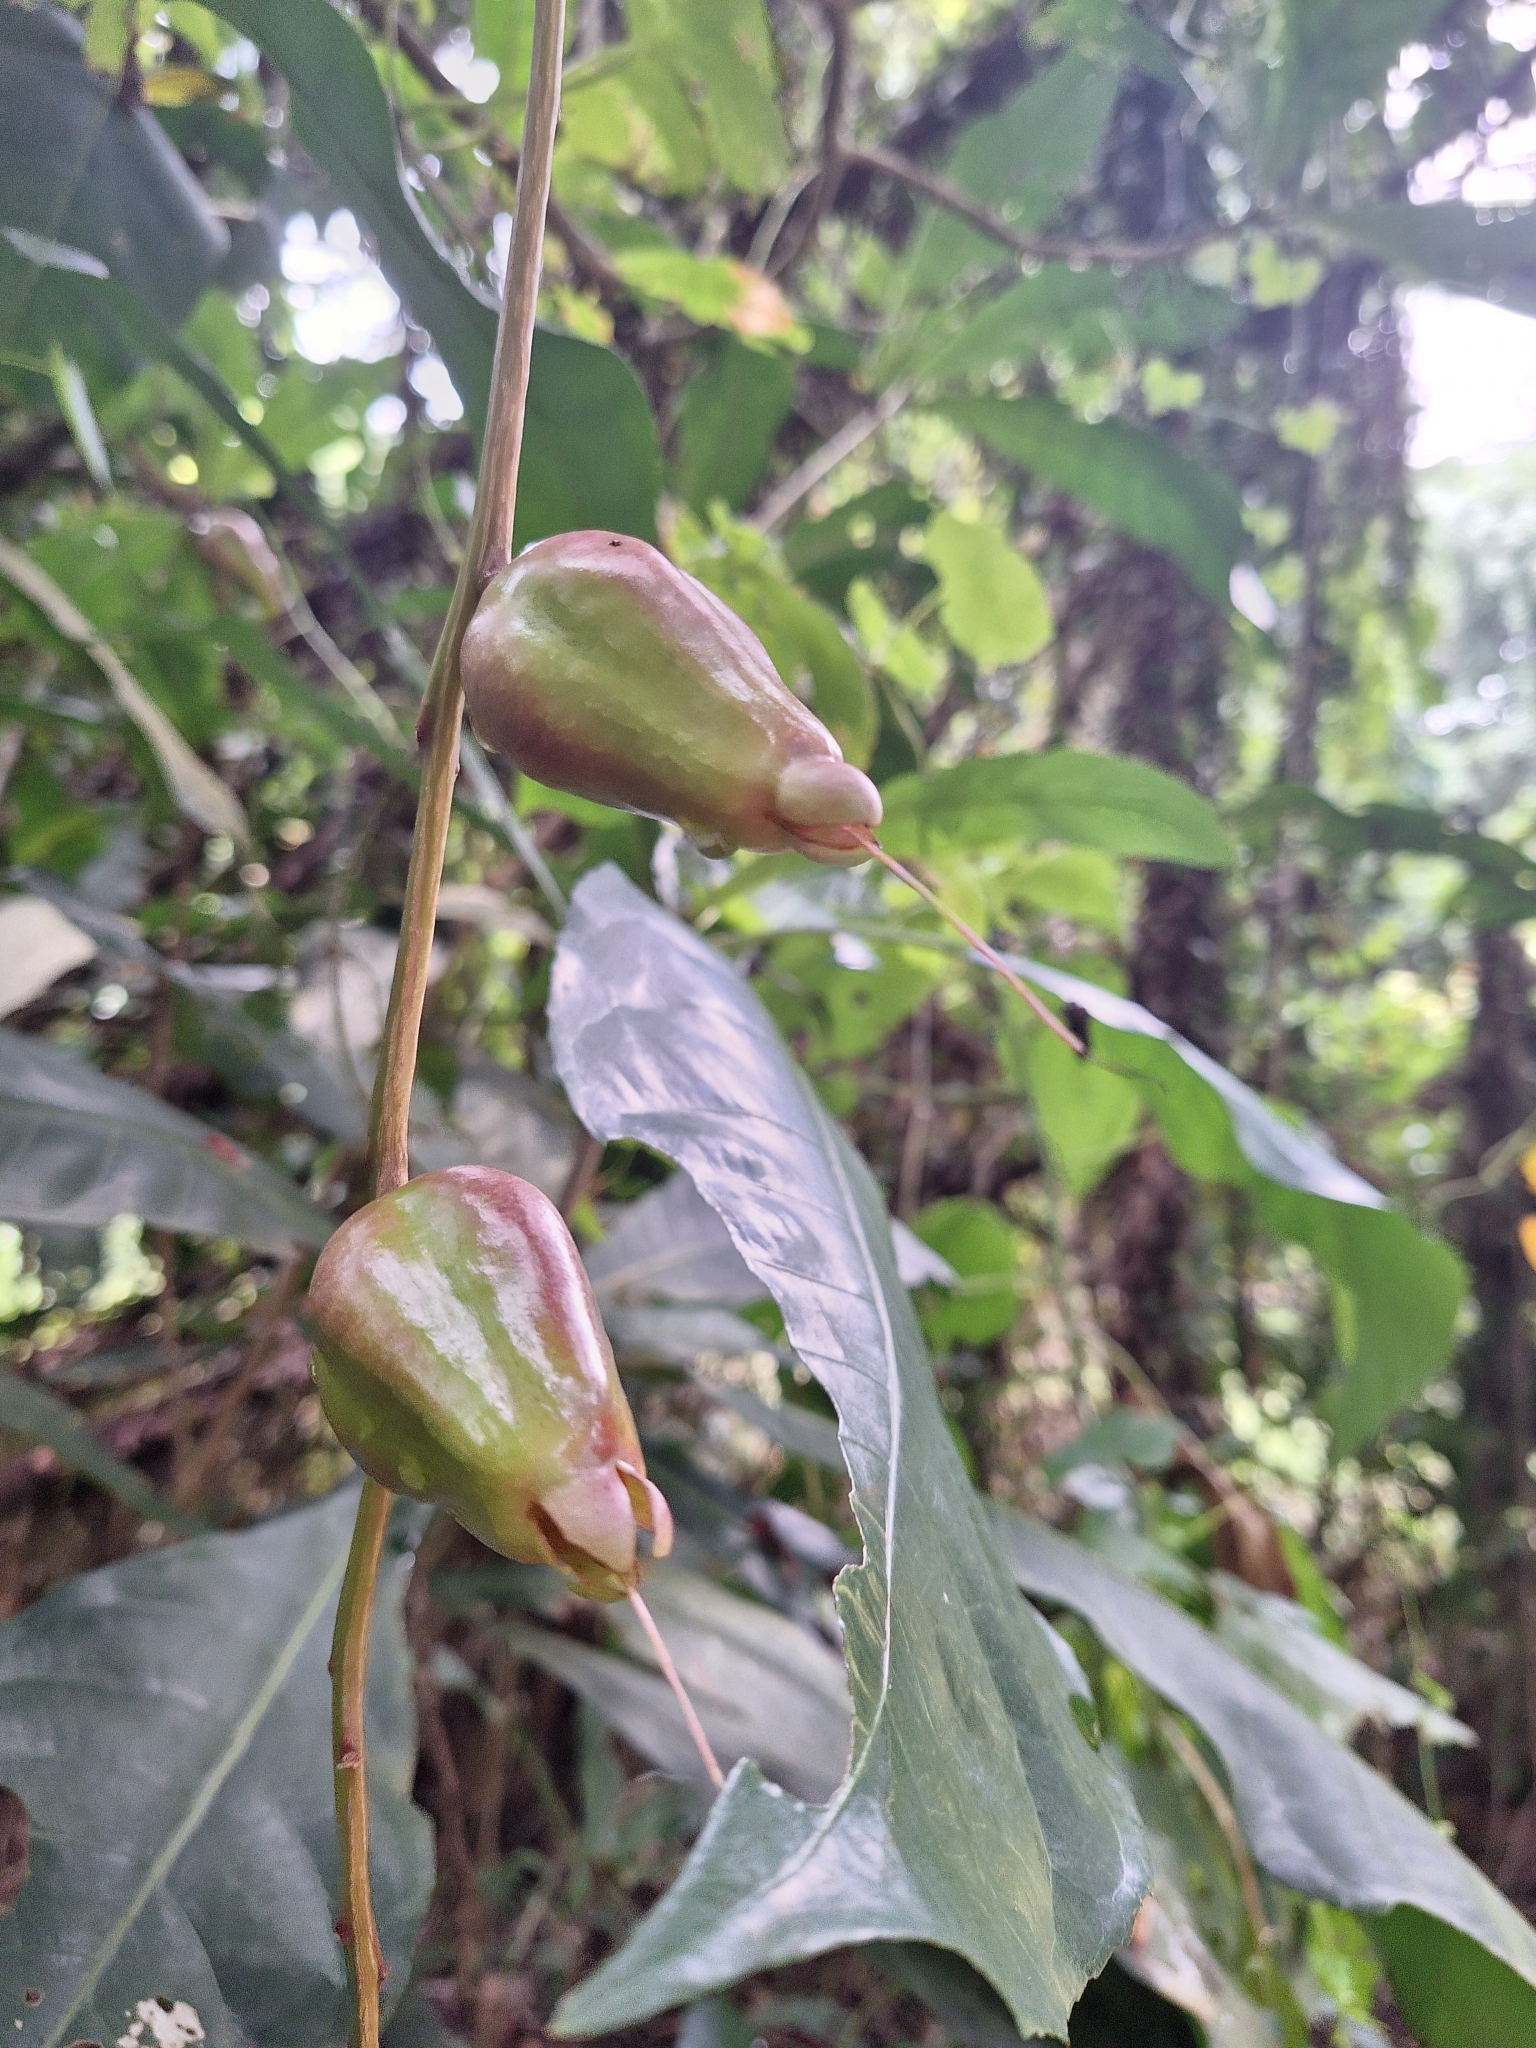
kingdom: Plantae
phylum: Tracheophyta
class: Magnoliopsida
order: Ericales
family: Lecythidaceae
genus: Barringtonia
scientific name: Barringtonia racemosa
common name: Brackwater mangrove
